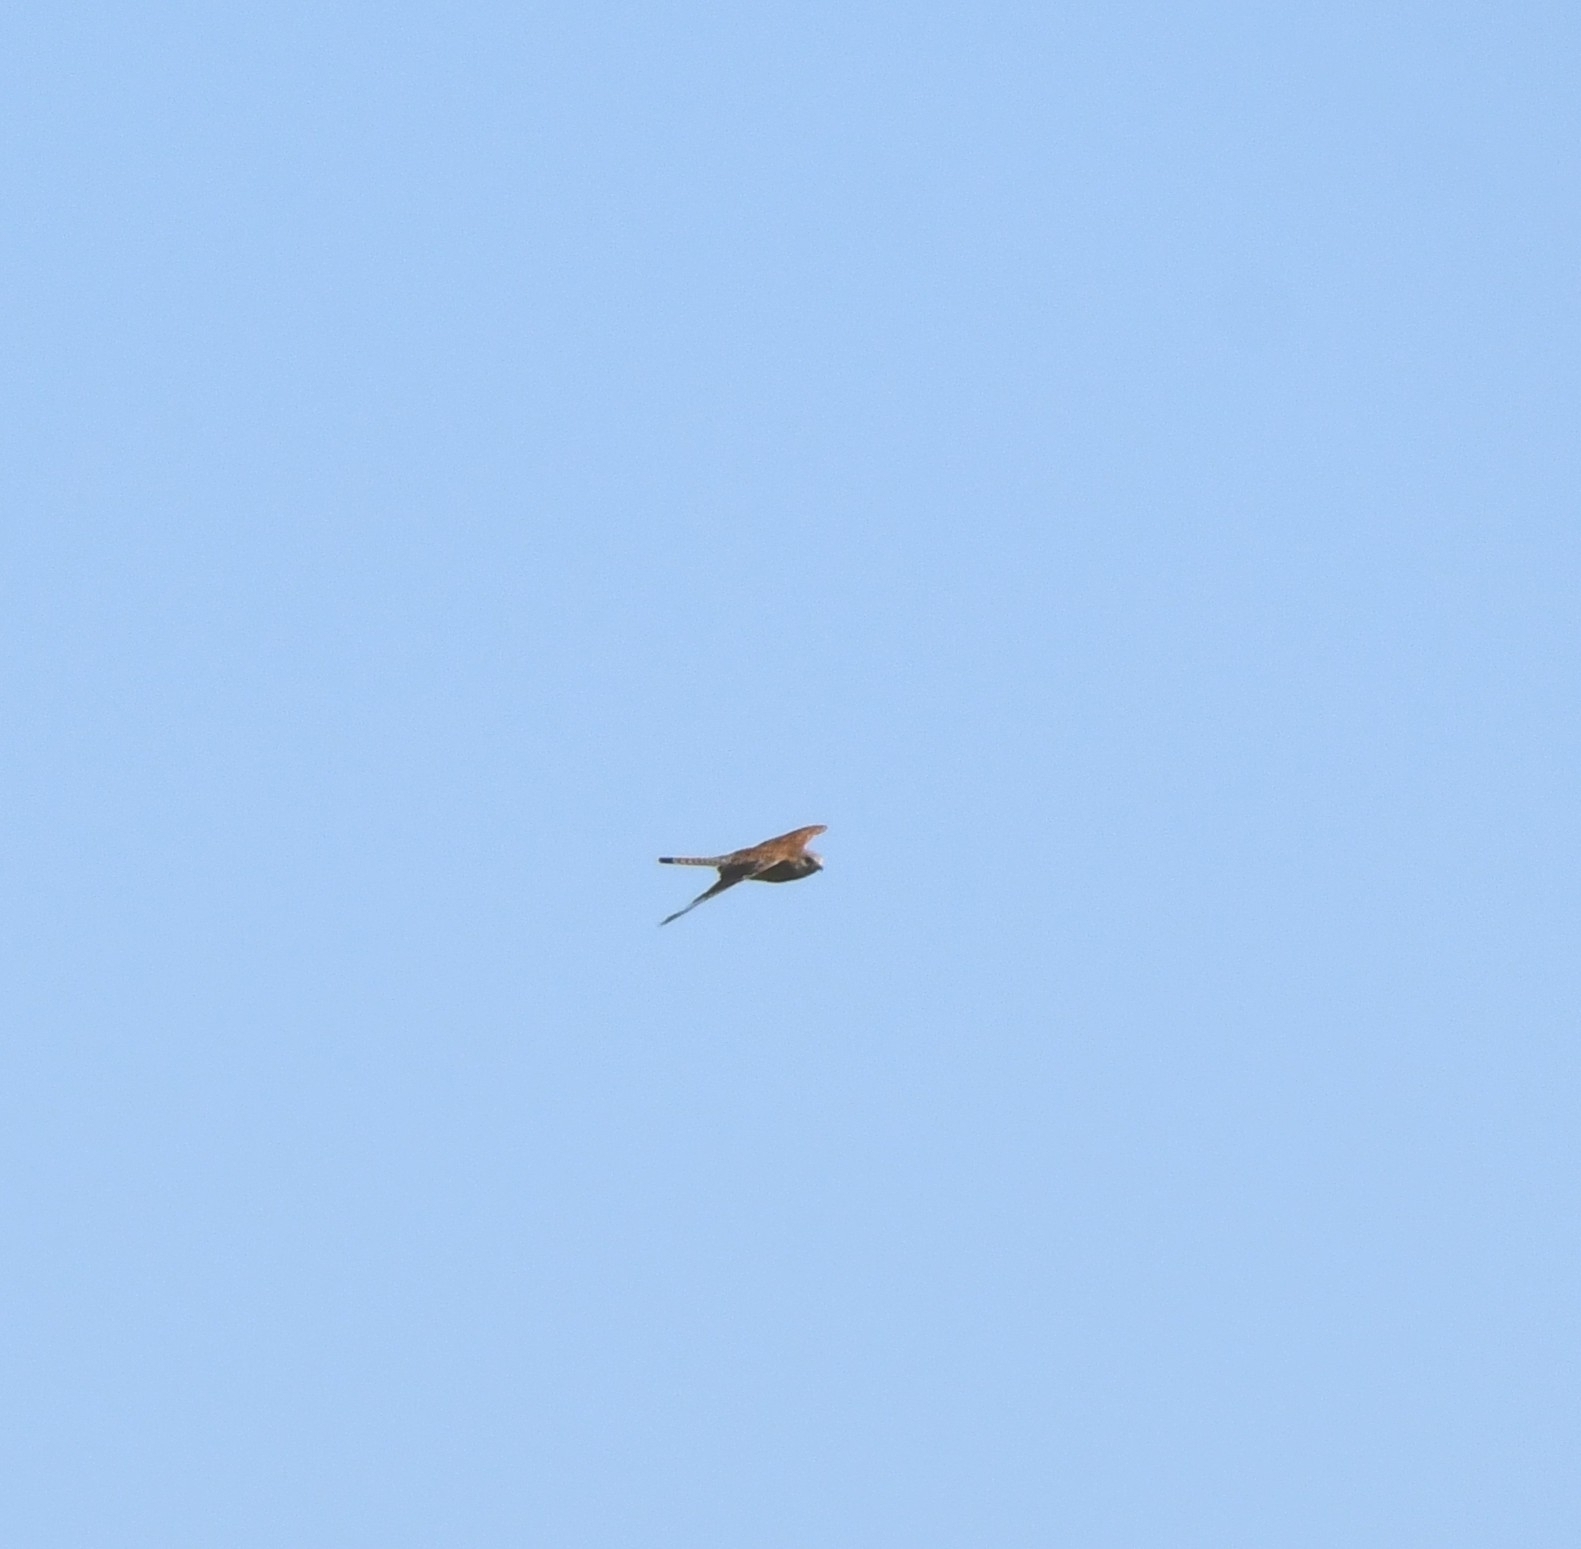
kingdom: Animalia
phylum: Chordata
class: Aves
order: Falconiformes
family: Falconidae
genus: Falco
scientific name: Falco tinnunculus
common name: Common kestrel
